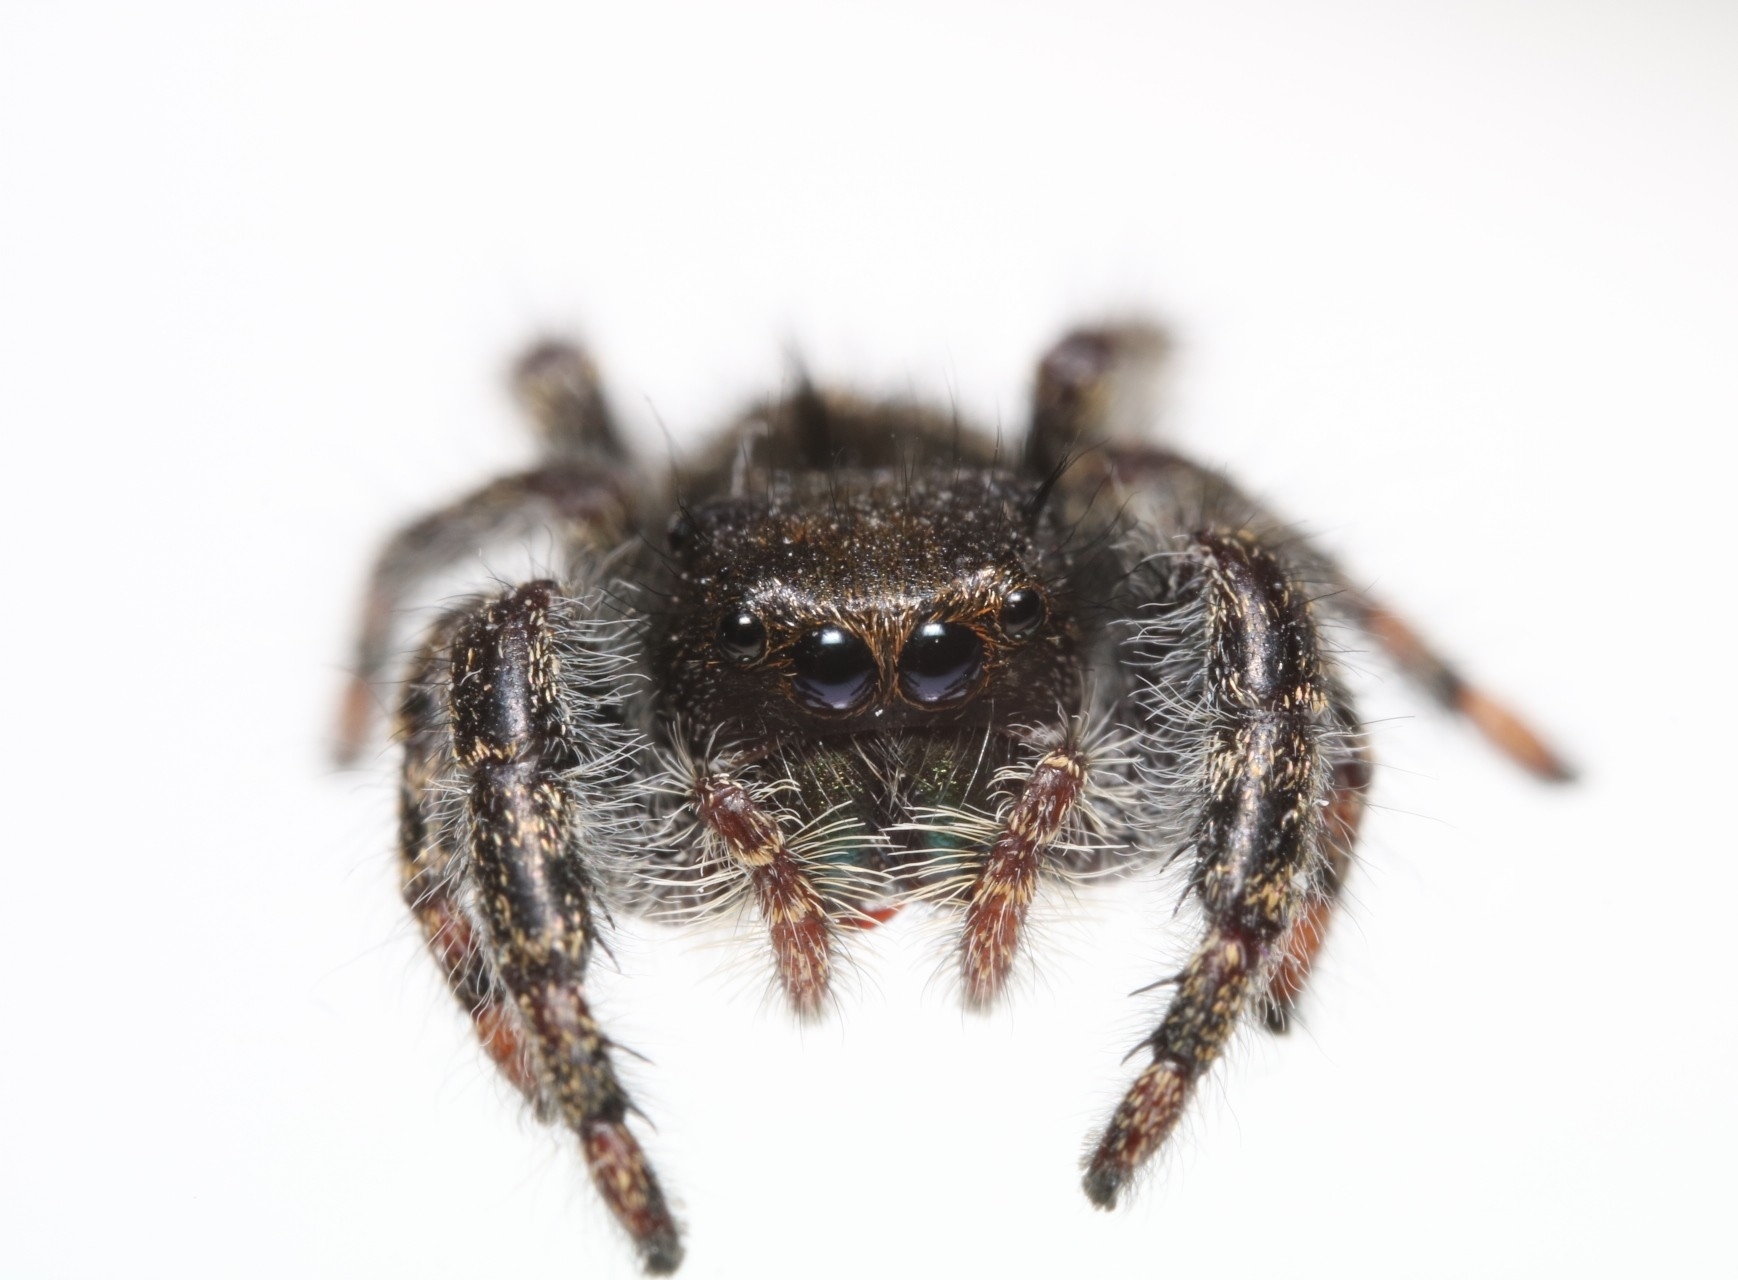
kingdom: Animalia
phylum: Arthropoda
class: Arachnida
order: Araneae
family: Salticidae
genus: Phidippus
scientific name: Phidippus audax
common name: Bold jumper
